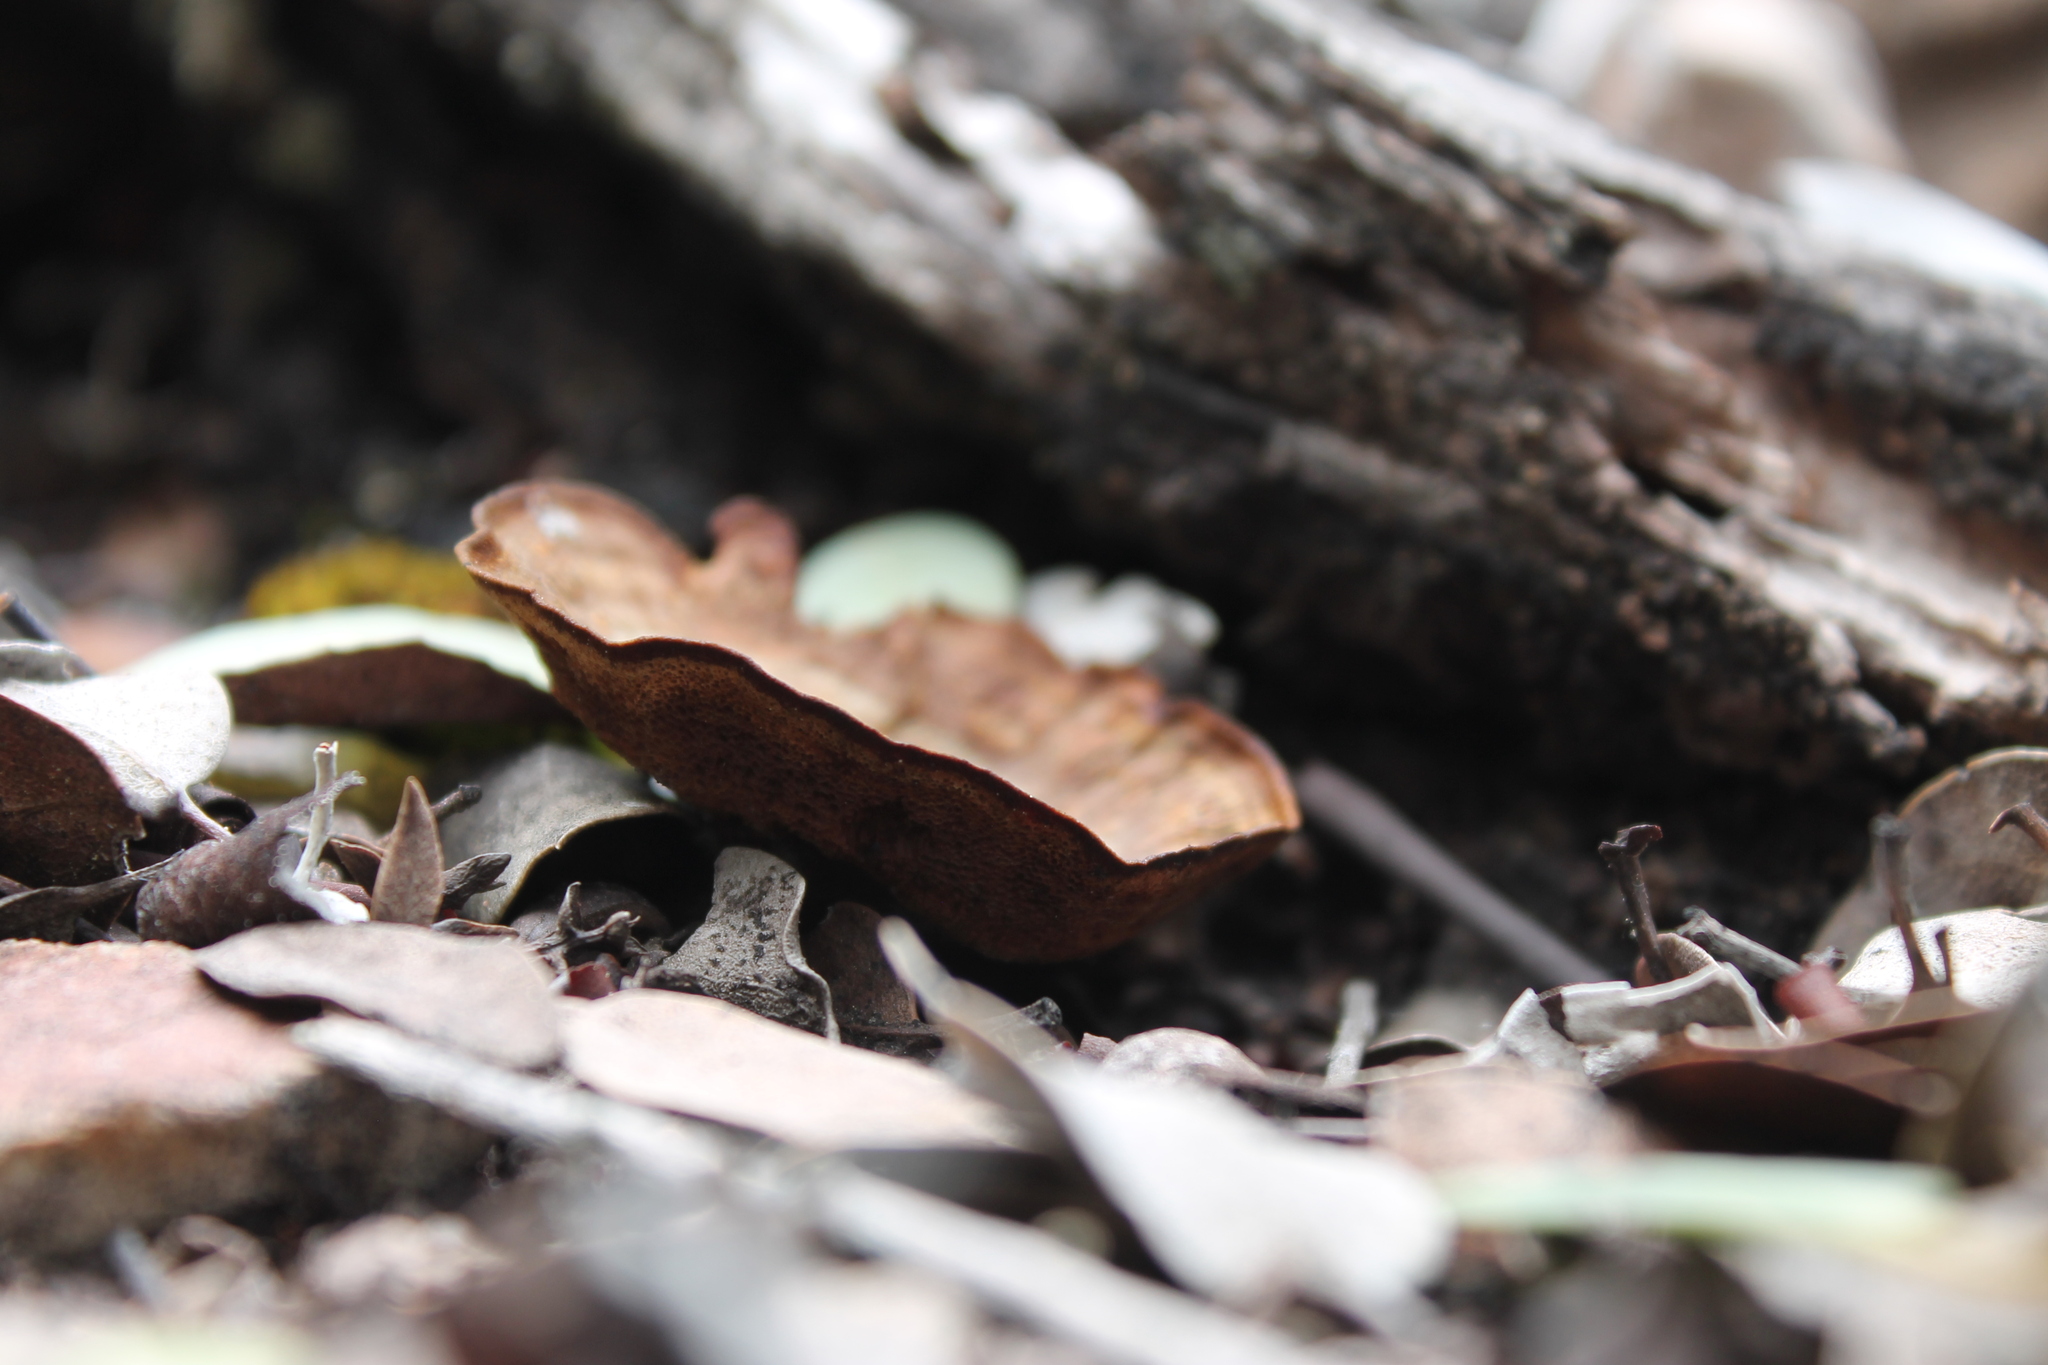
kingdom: Fungi
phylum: Basidiomycota
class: Agaricomycetes
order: Hymenochaetales
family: Hymenochaetaceae
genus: Coltricia
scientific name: Coltricia perennis
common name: Tiger's eye
